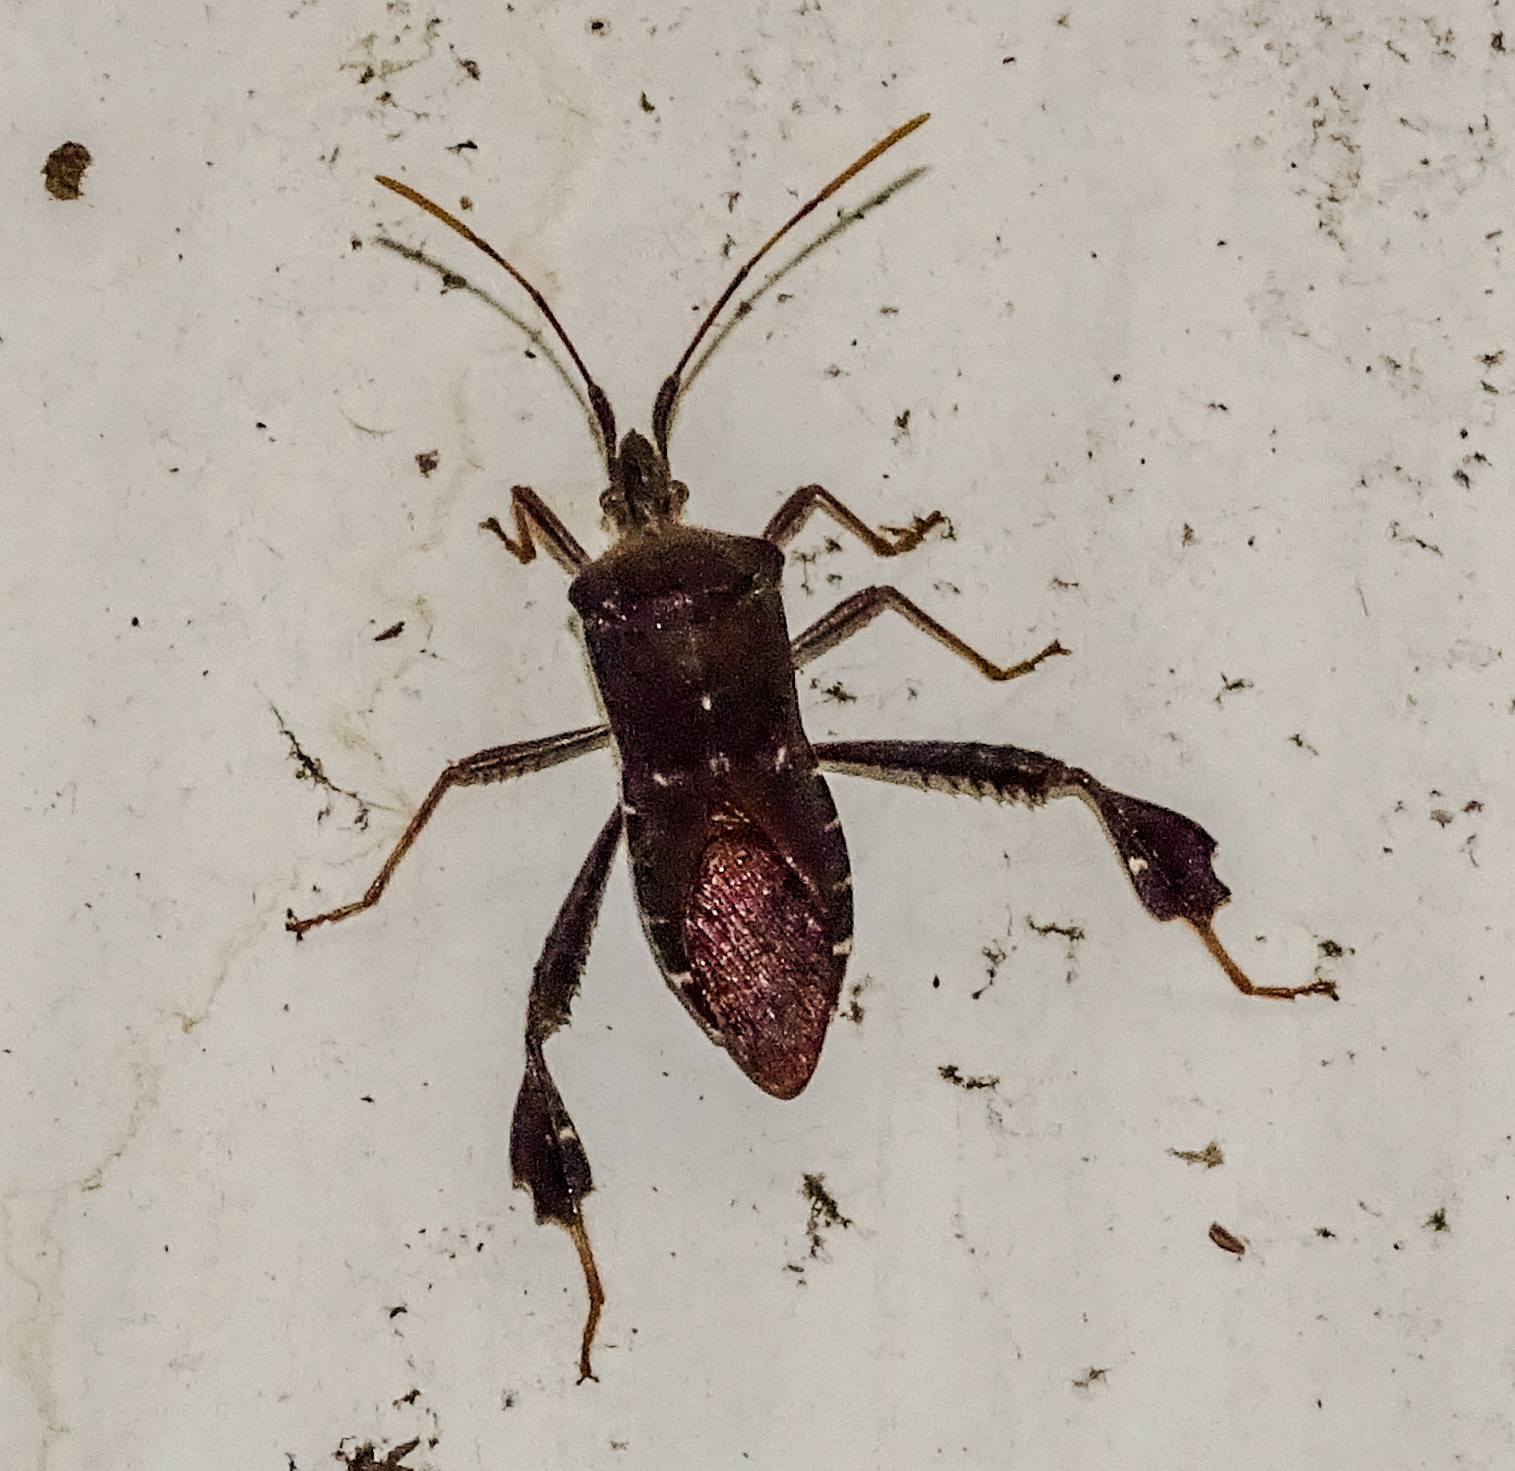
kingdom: Animalia
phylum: Arthropoda
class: Insecta
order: Hemiptera
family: Coreidae
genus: Leptoglossus
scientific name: Leptoglossus oppositus
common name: Northern leaf-footed bug
